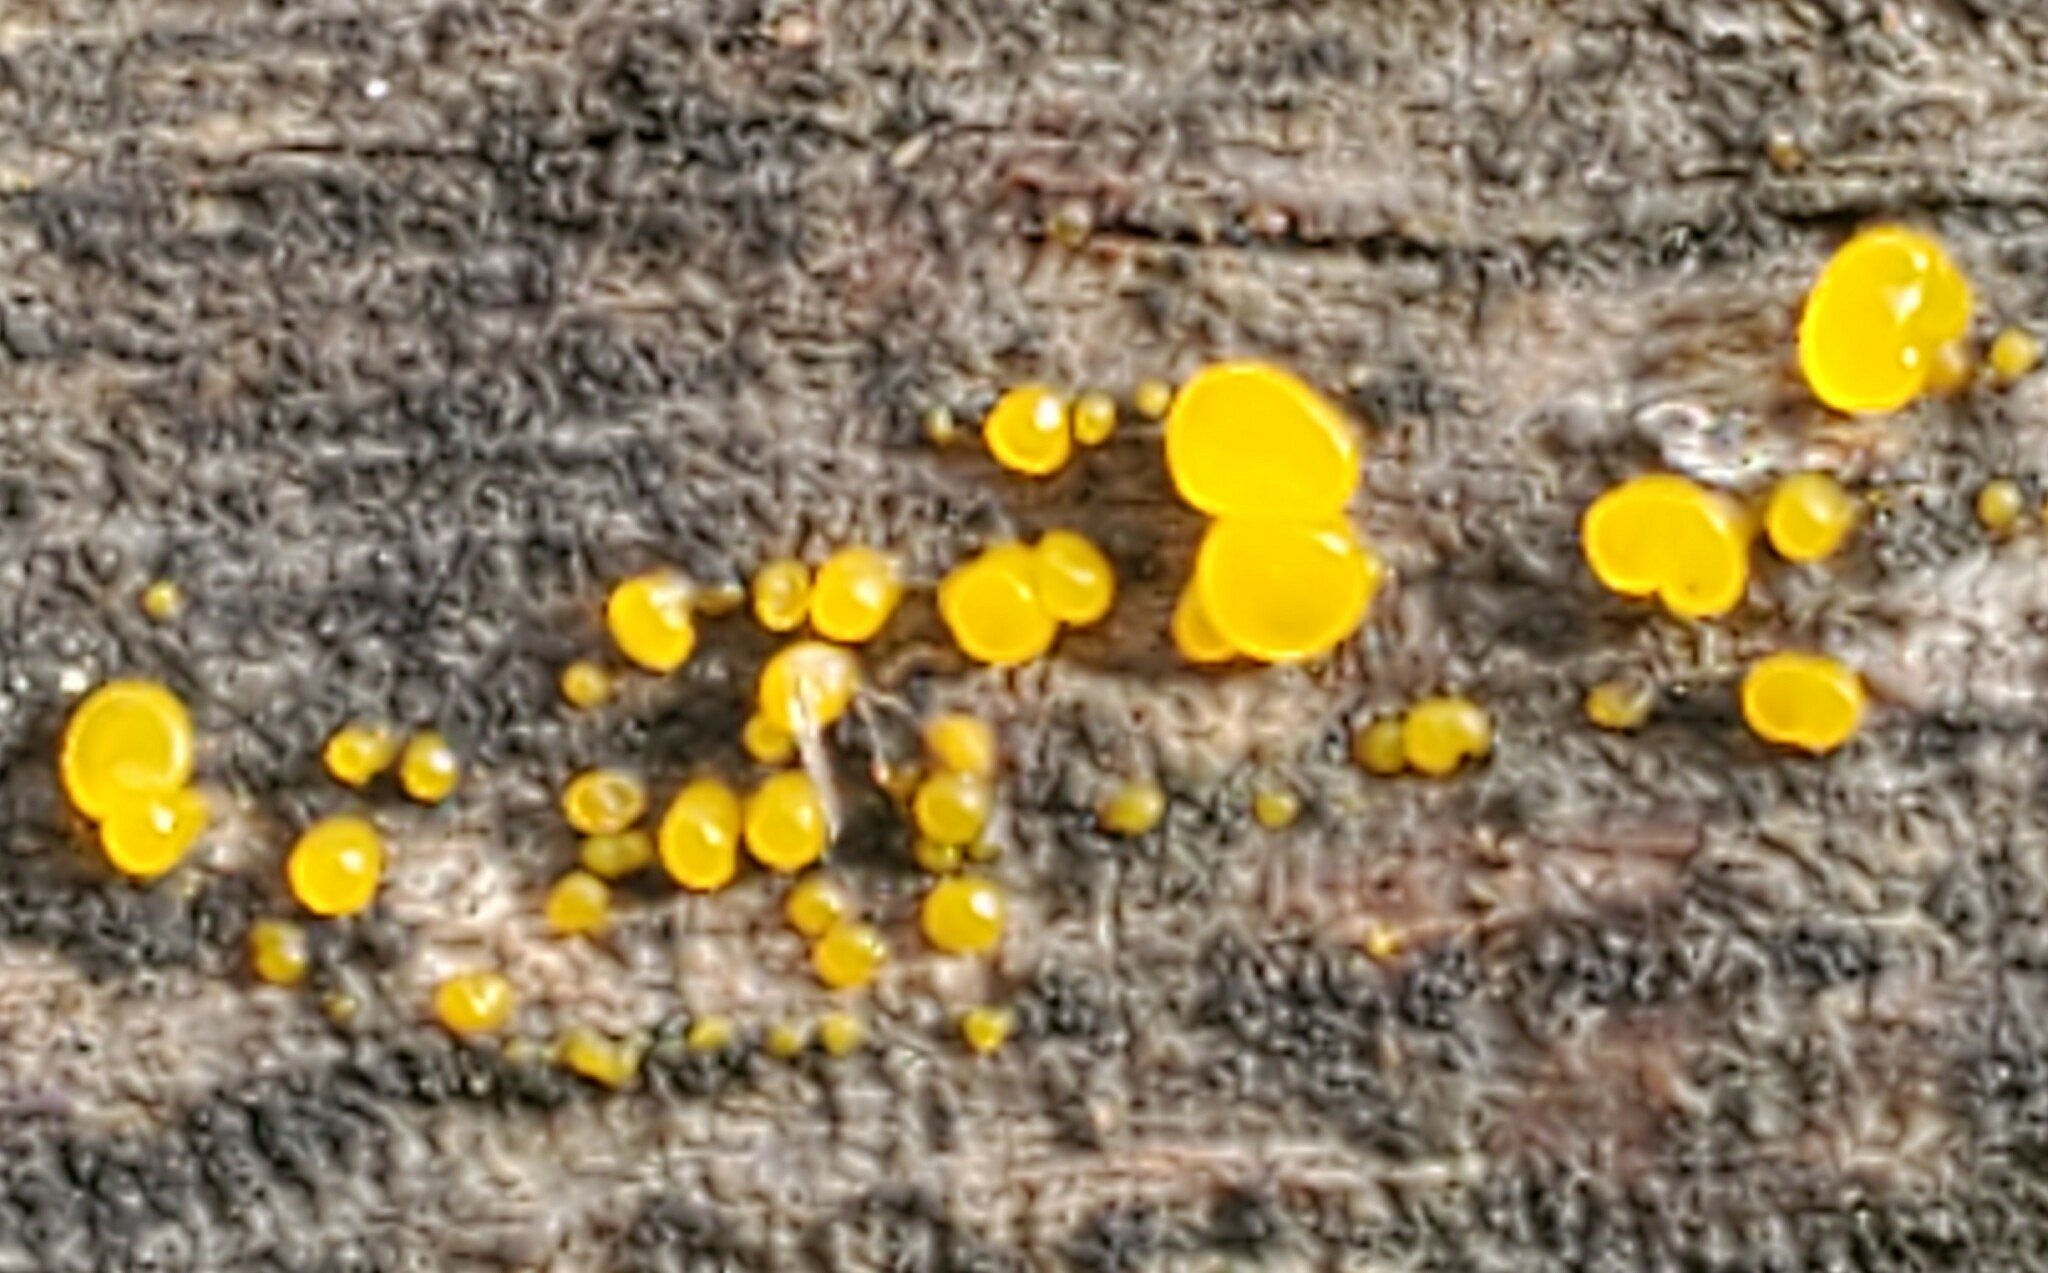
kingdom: Fungi
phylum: Basidiomycota
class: Dacrymycetes
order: Dacrymycetales
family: Dacrymycetaceae
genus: Dacrymyces
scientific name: Dacrymyces stillatus
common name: Common jelly spot
